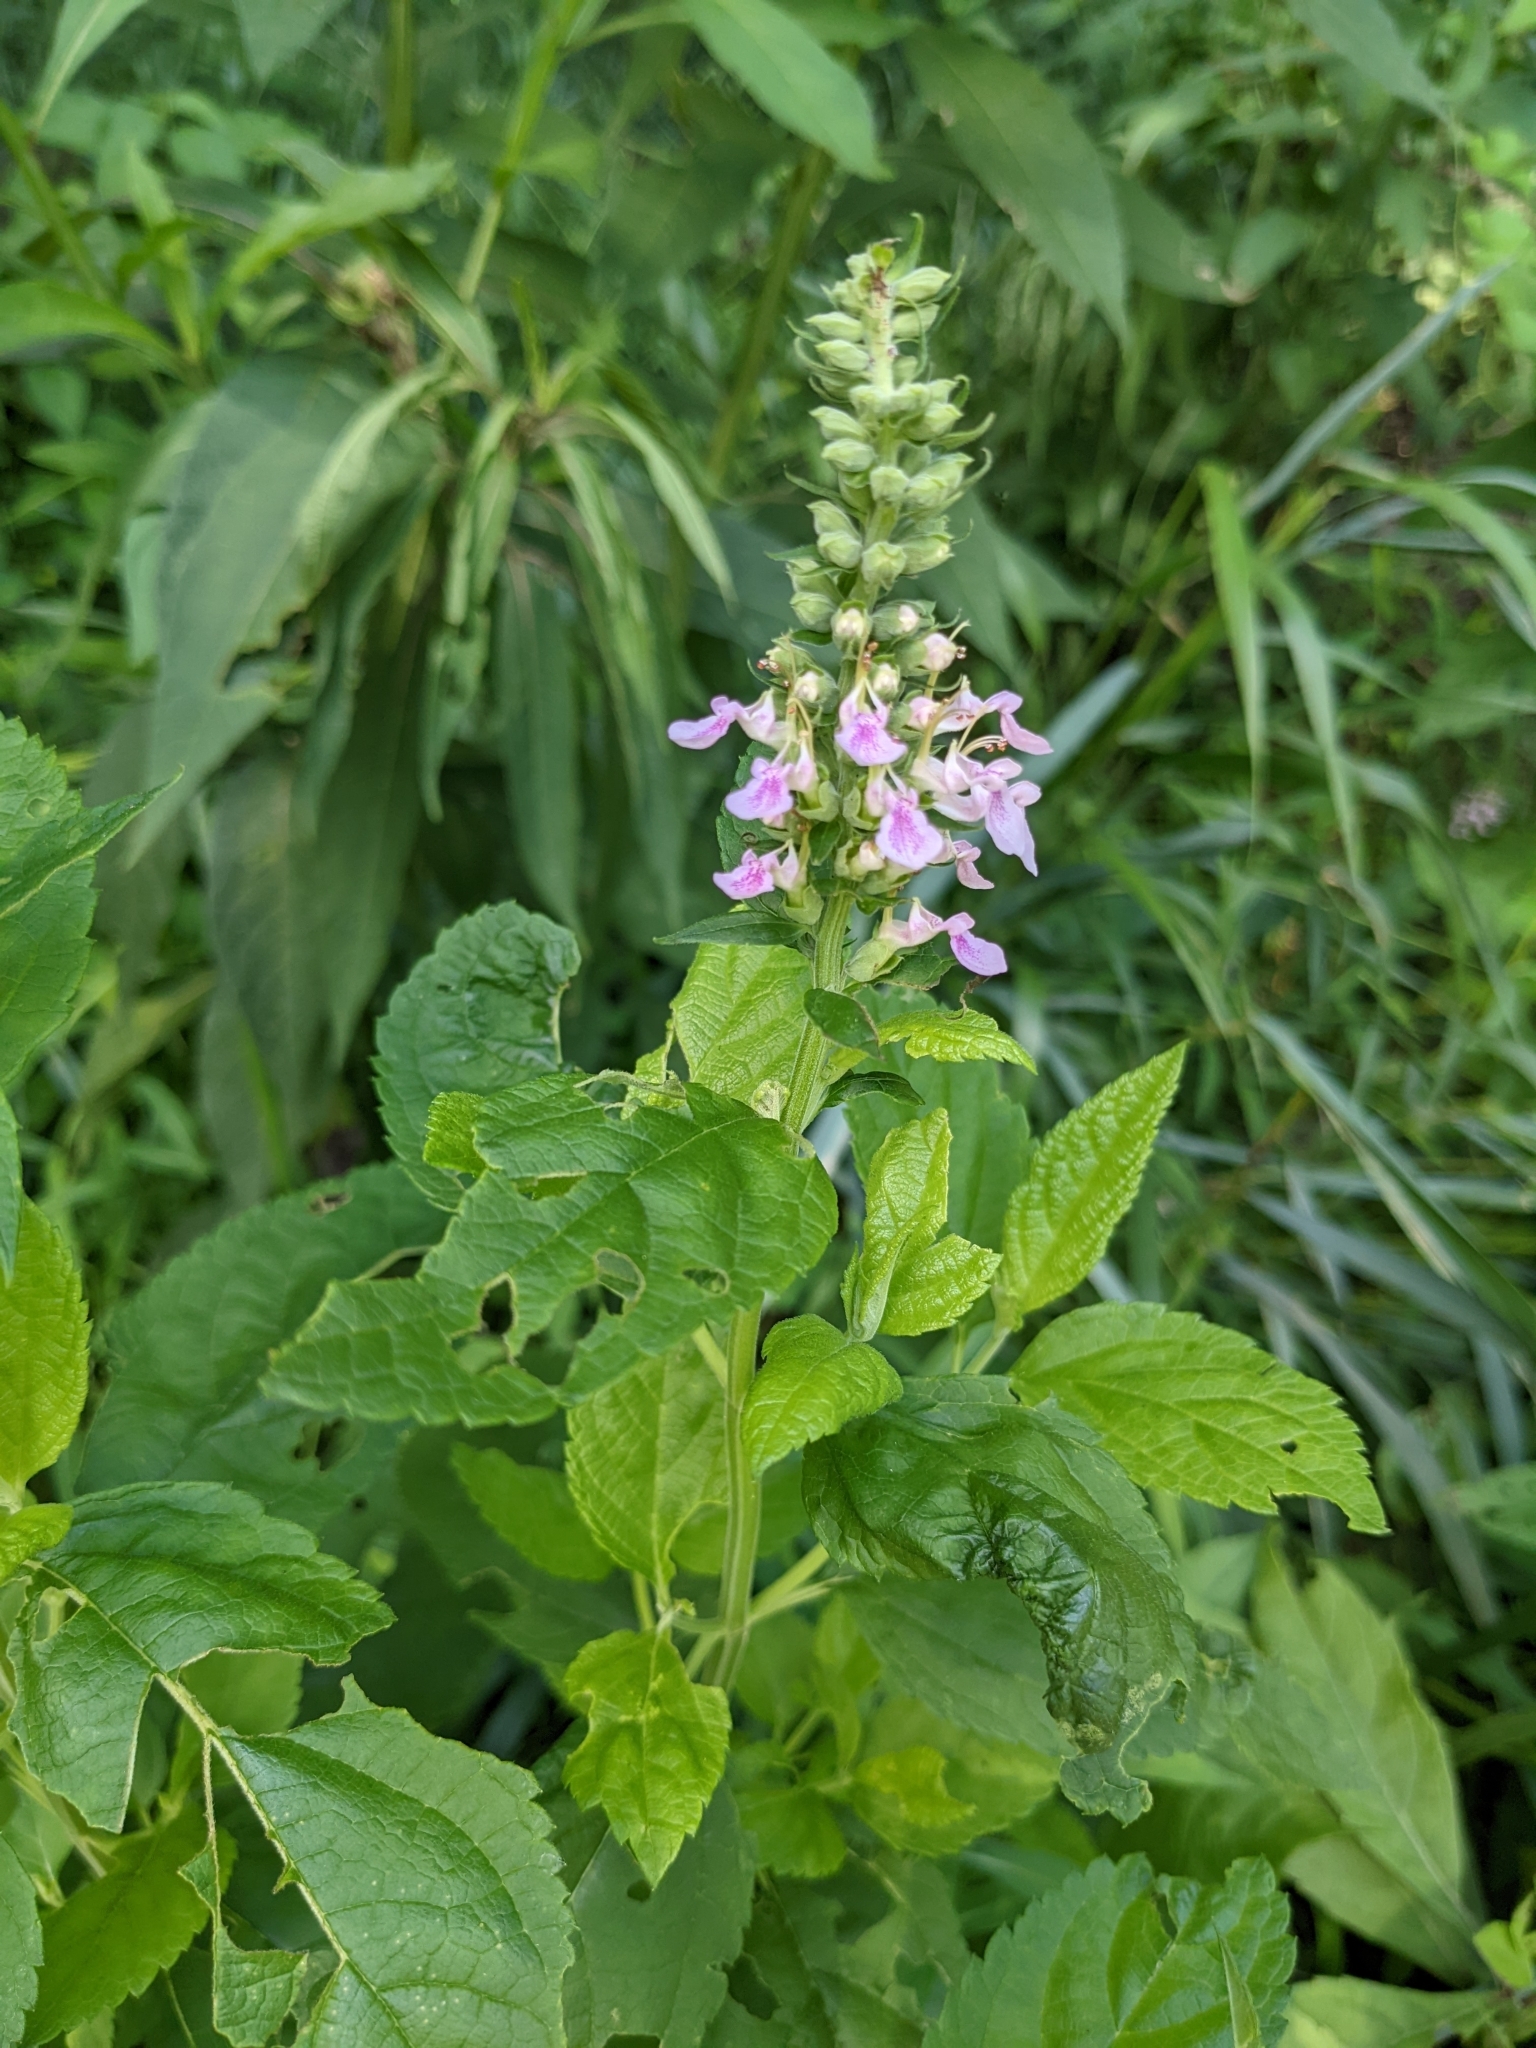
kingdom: Plantae
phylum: Tracheophyta
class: Magnoliopsida
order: Lamiales
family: Lamiaceae
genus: Teucrium
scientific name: Teucrium canadense
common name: American germander
